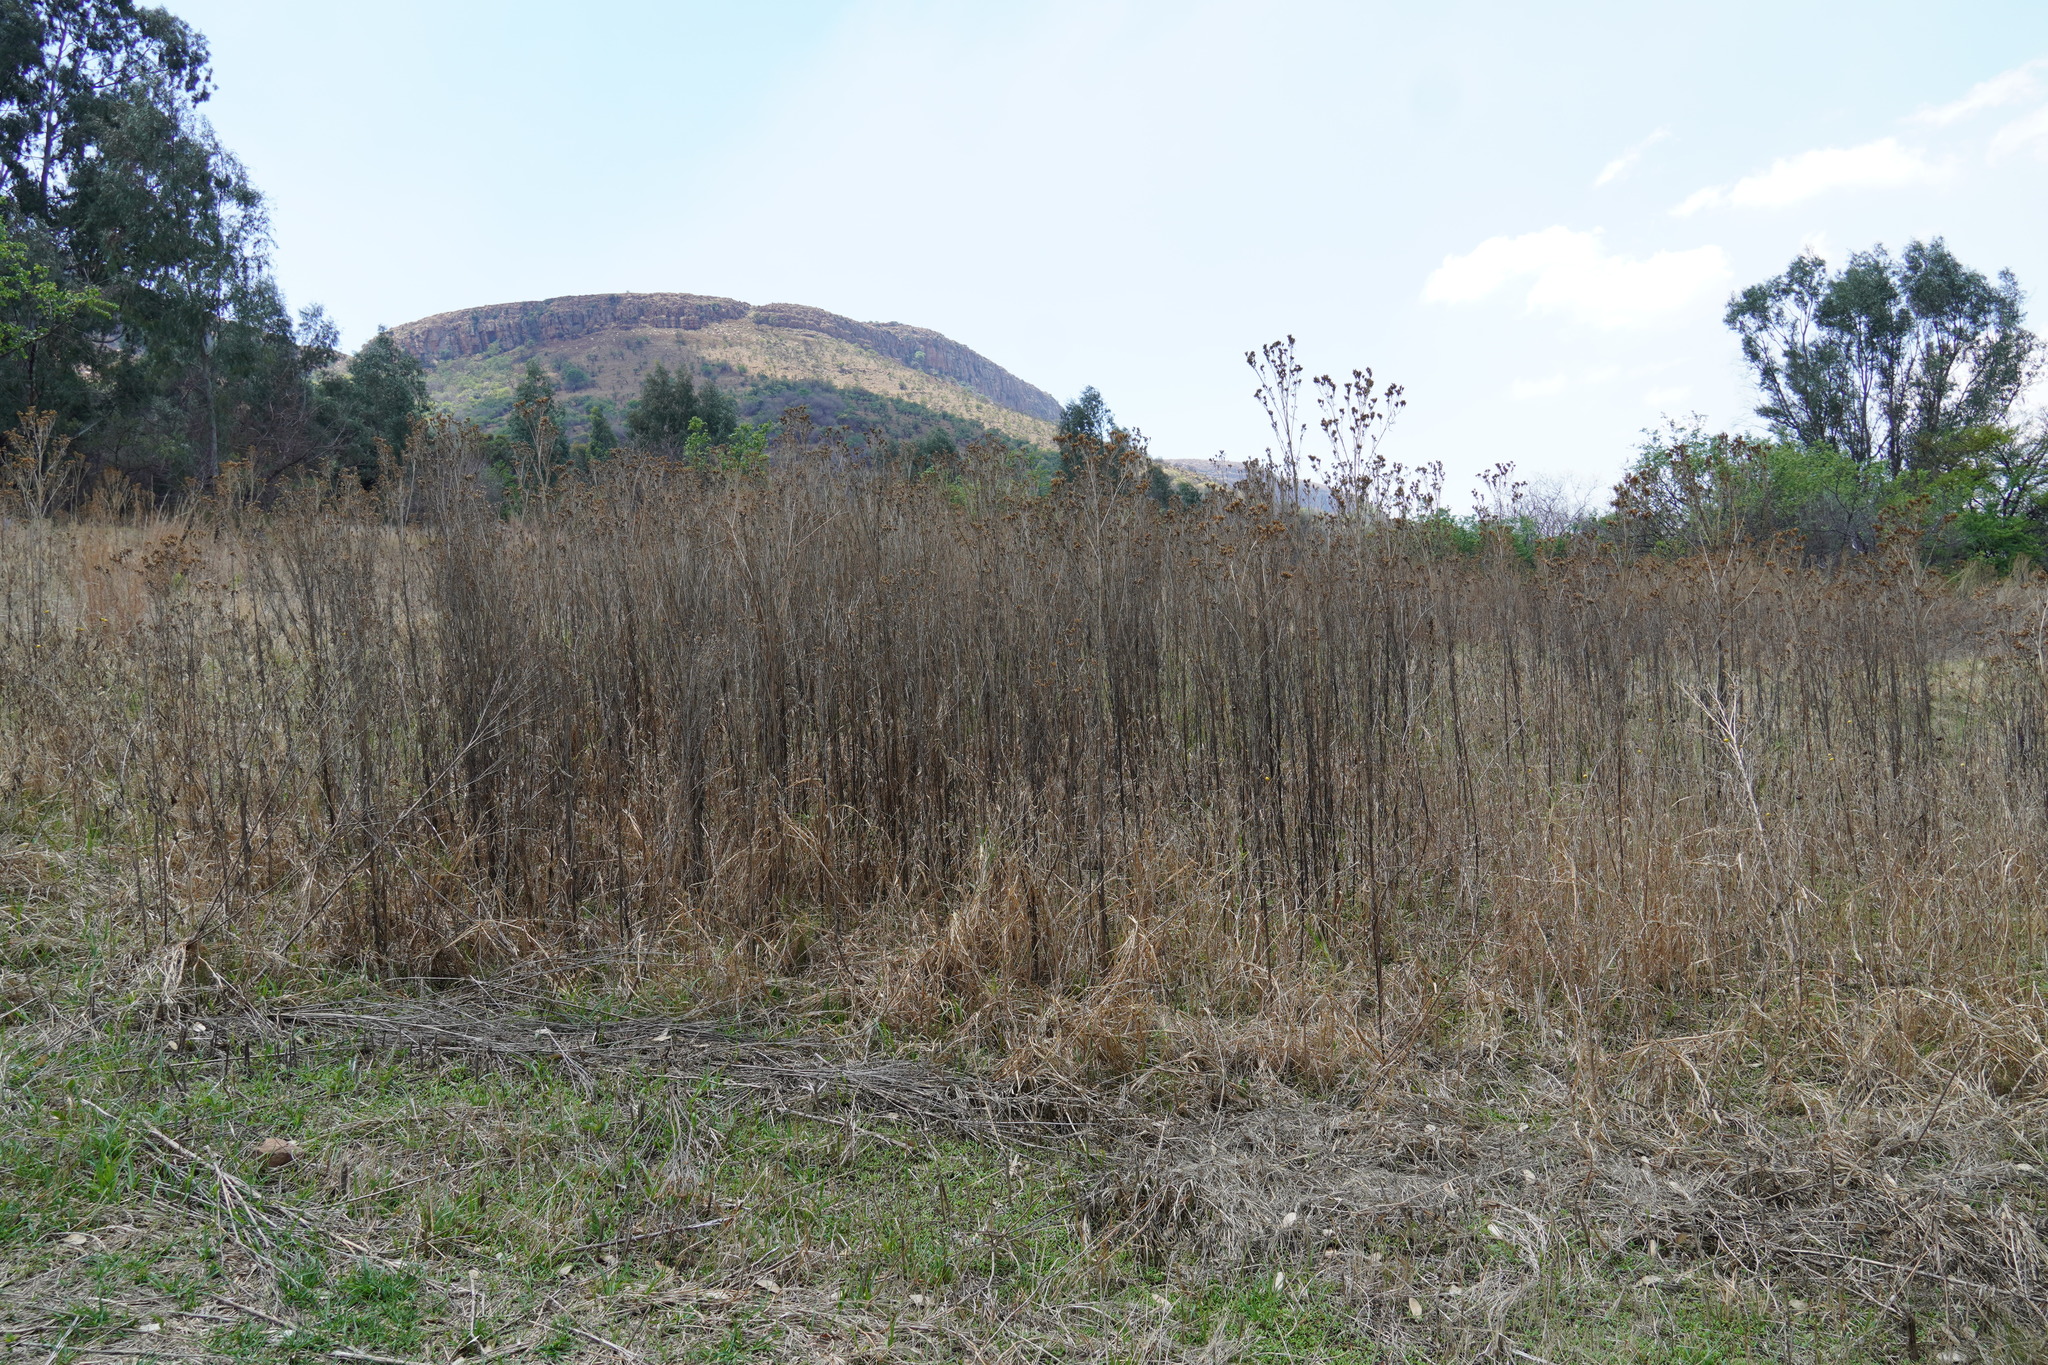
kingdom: Plantae
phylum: Tracheophyta
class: Magnoliopsida
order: Asterales
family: Asteraceae
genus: Tagetes
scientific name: Tagetes minuta
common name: Muster john henry
